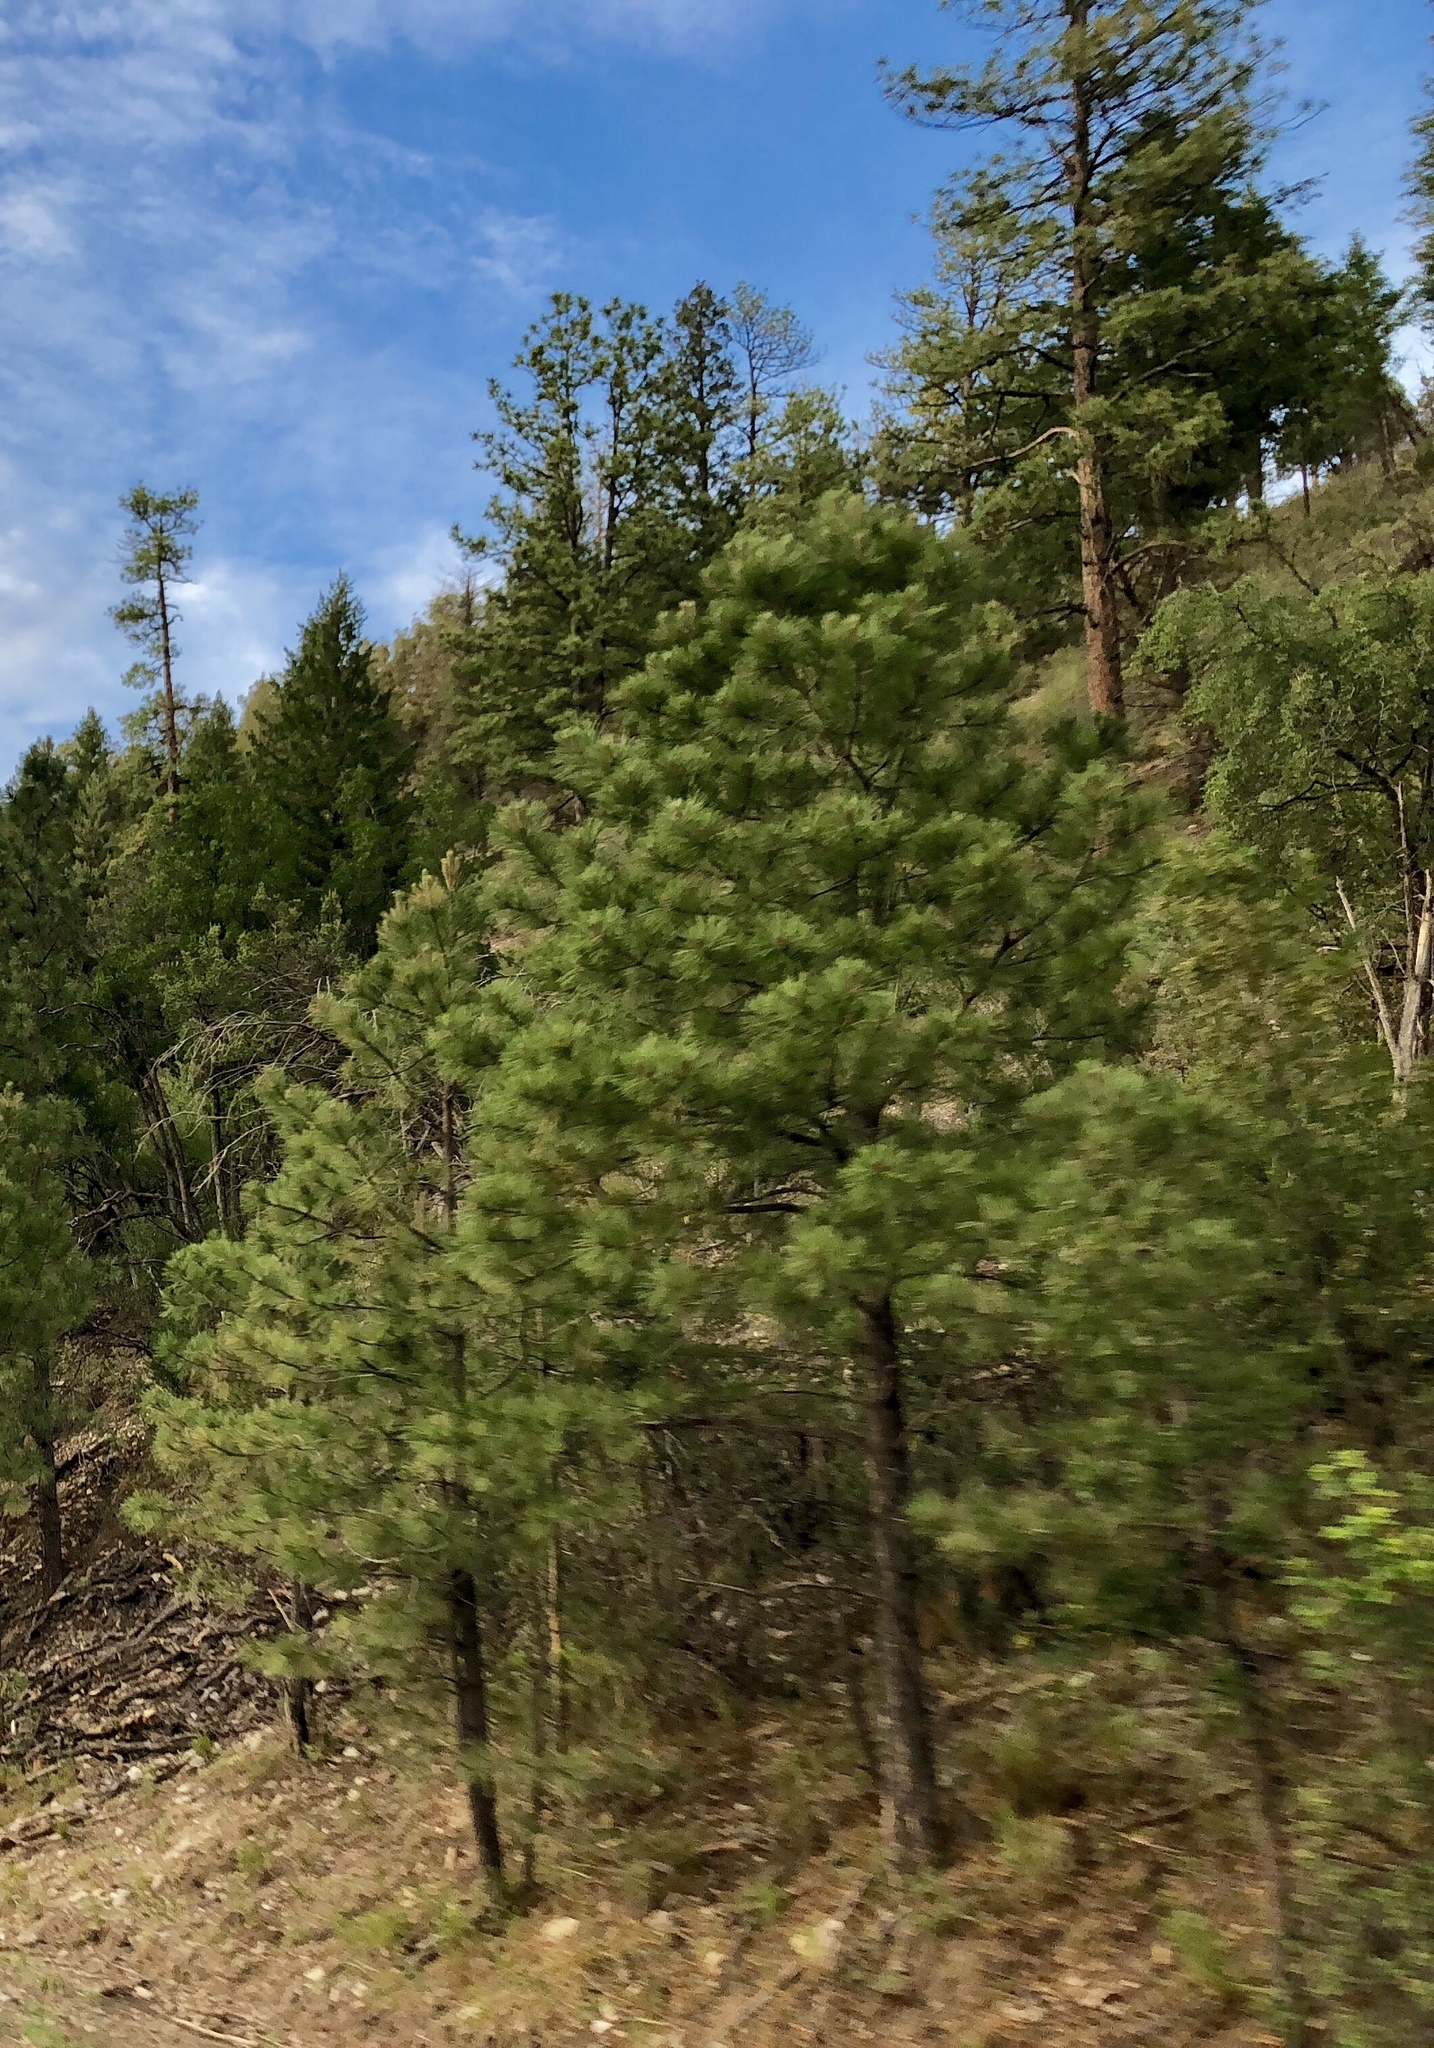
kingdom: Plantae
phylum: Tracheophyta
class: Pinopsida
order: Pinales
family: Pinaceae
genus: Pinus
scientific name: Pinus ponderosa
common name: Western yellow-pine
